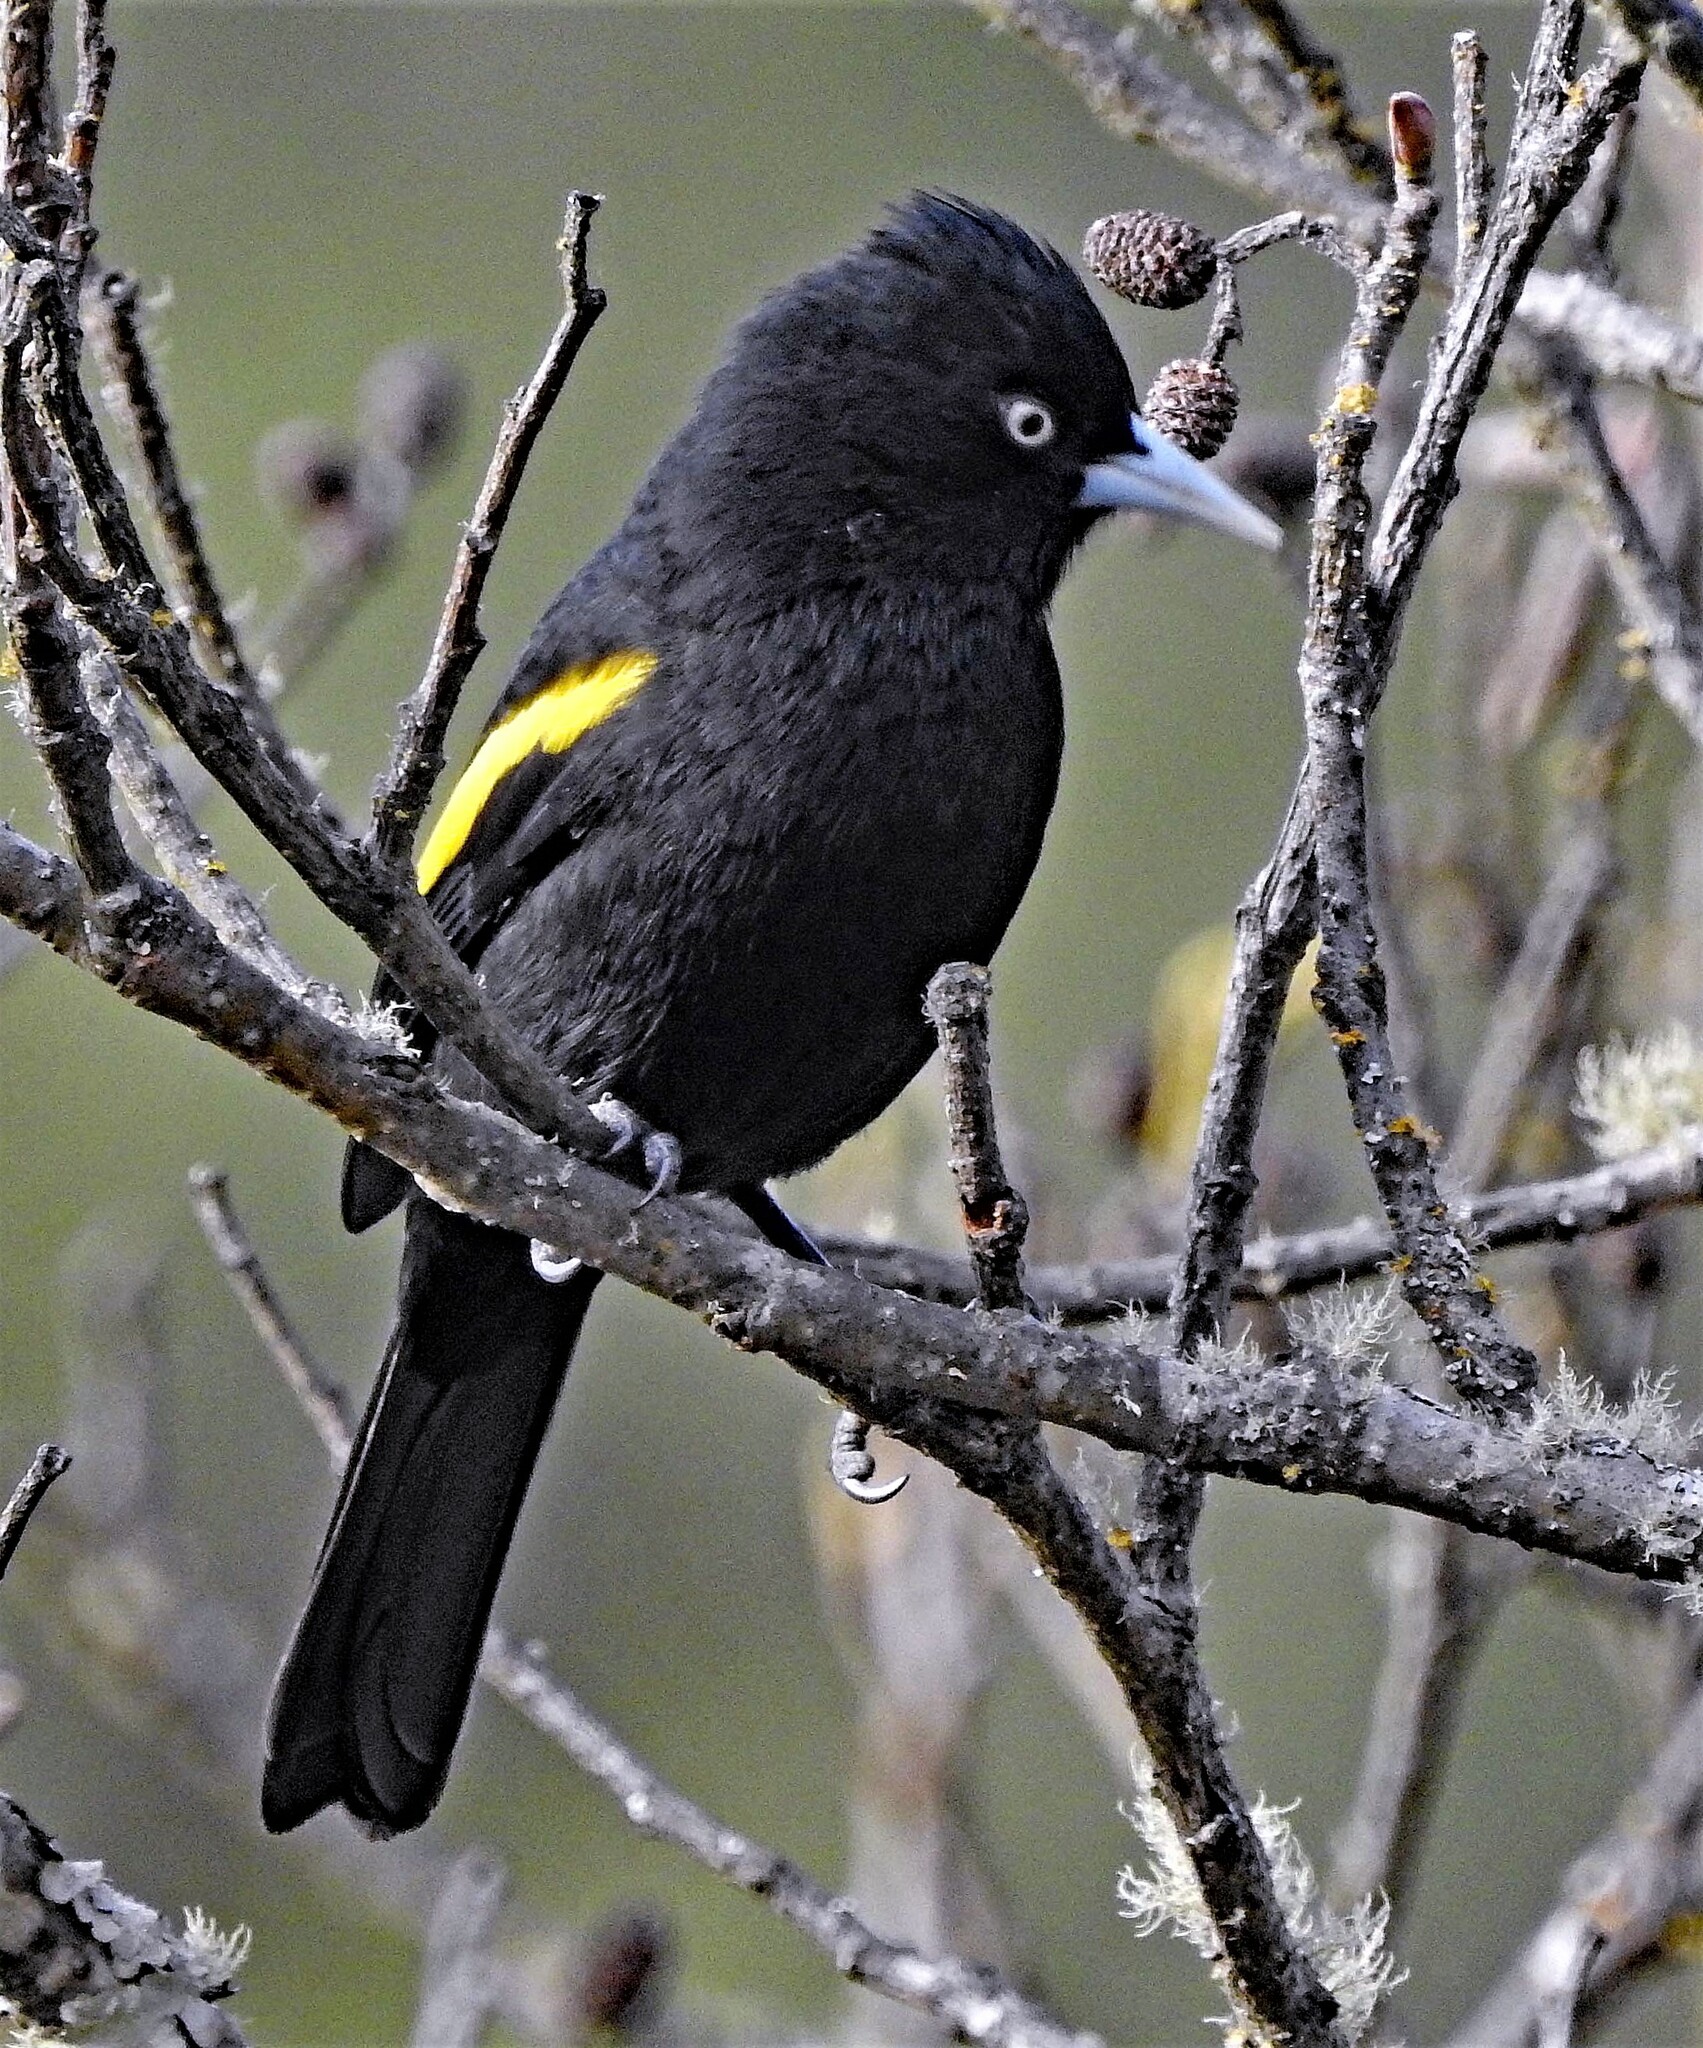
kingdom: Animalia
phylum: Chordata
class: Aves
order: Passeriformes
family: Icteridae
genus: Cacicus
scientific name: Cacicus chrysopterus
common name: Golden-winged cacique
